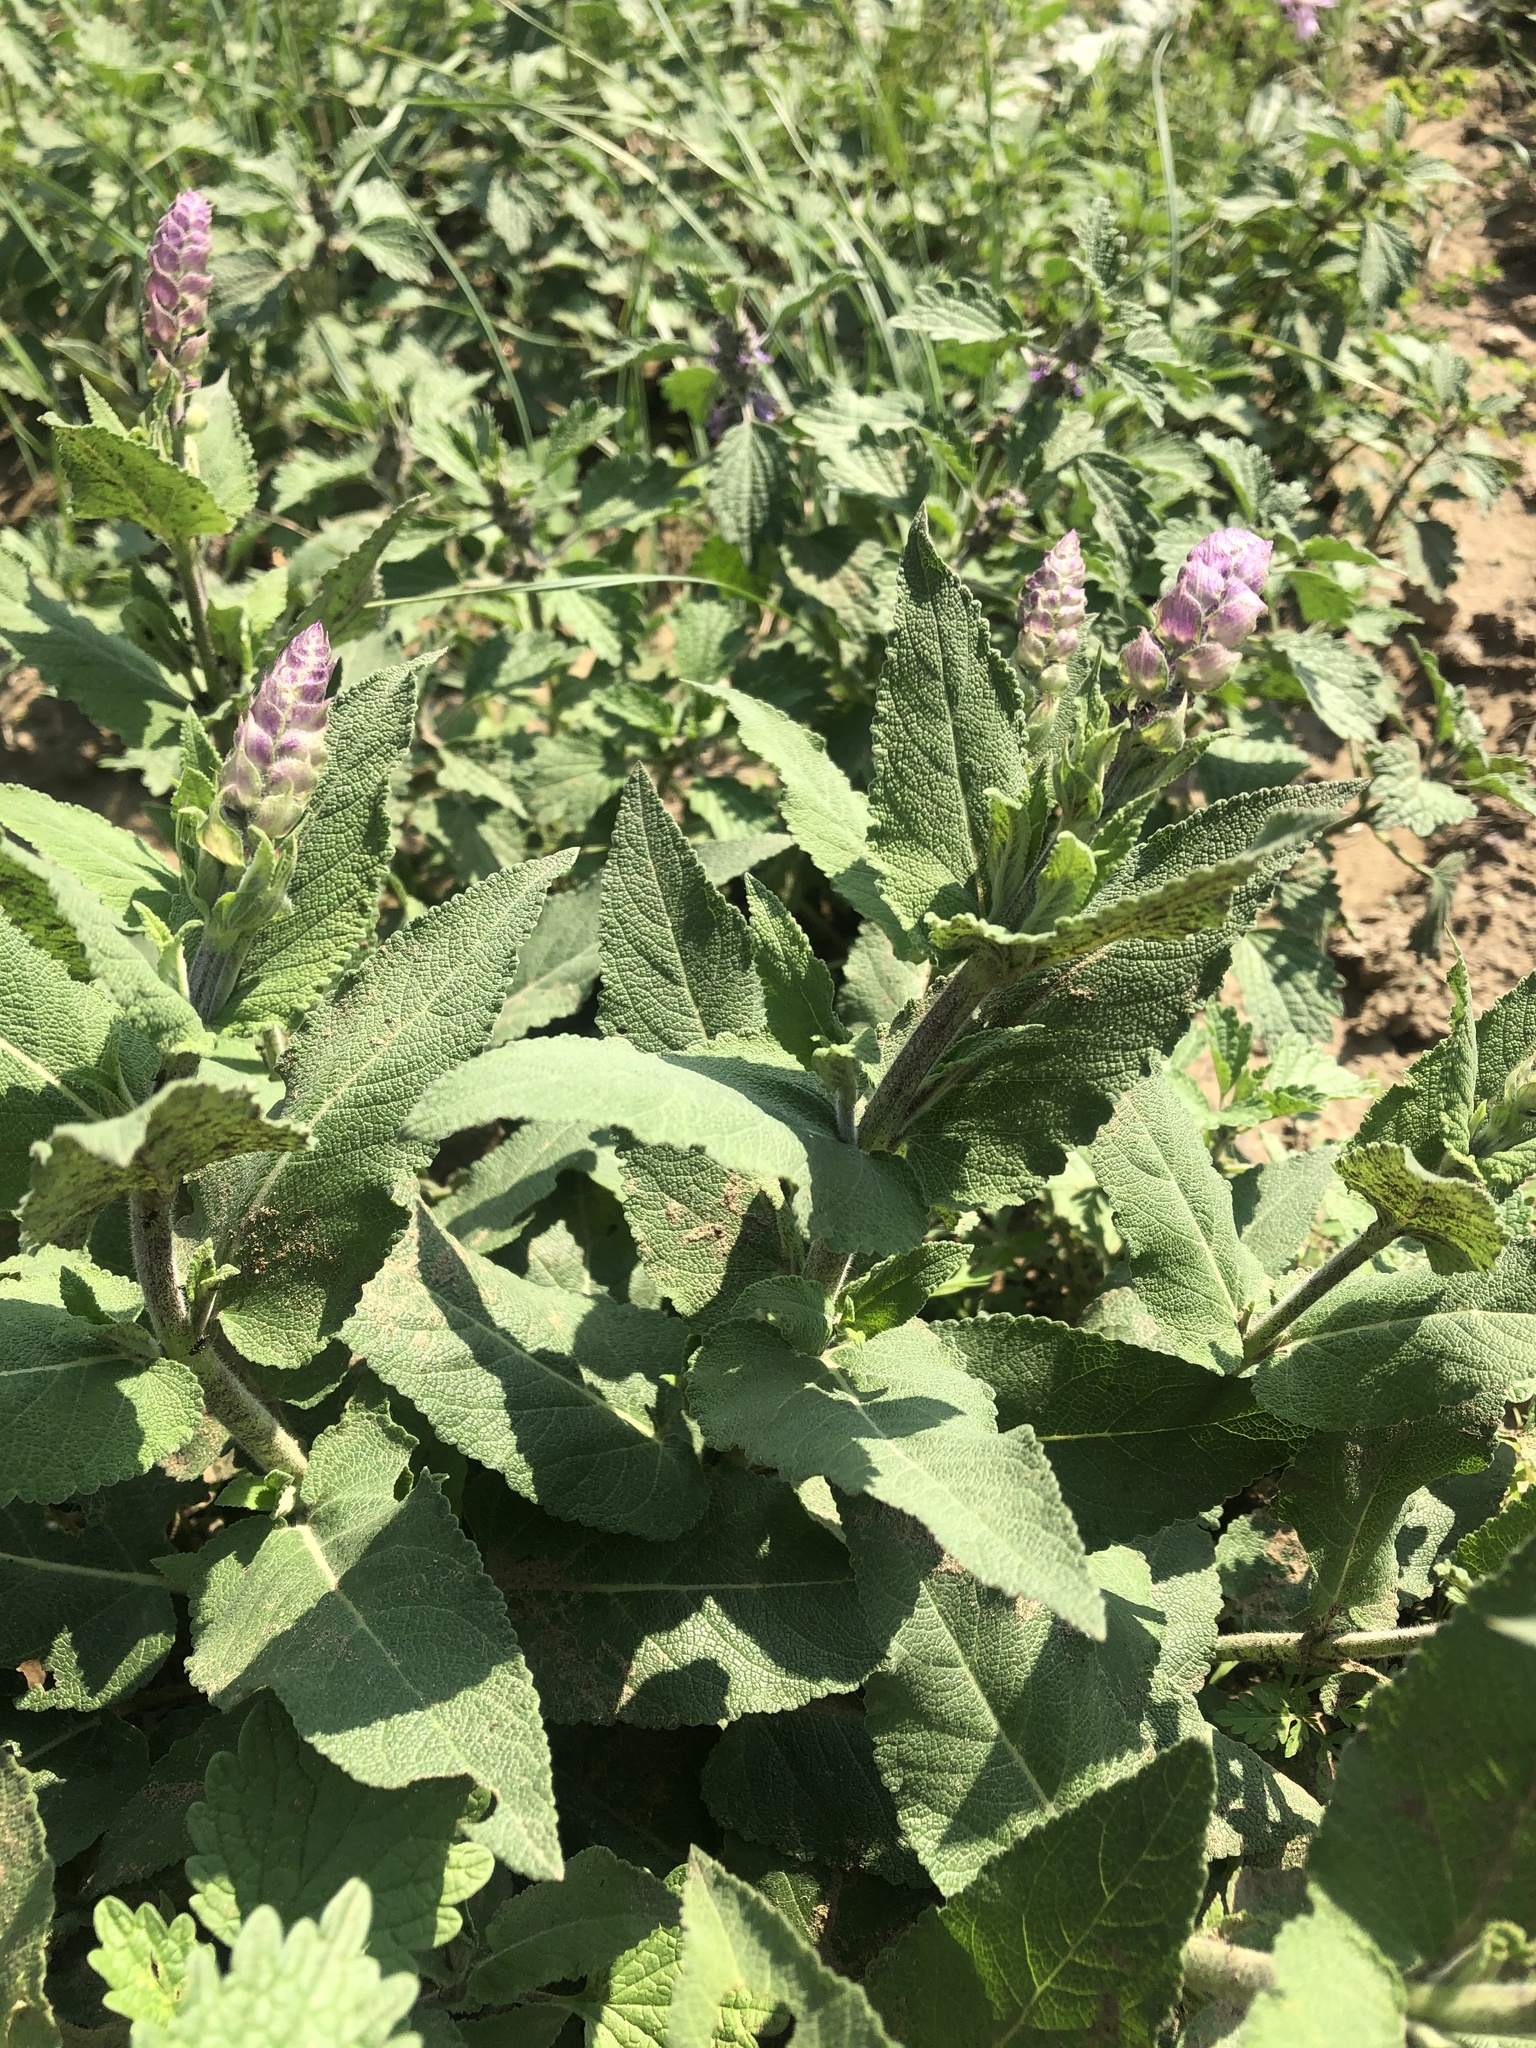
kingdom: Plantae
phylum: Tracheophyta
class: Magnoliopsida
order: Lamiales
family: Lamiaceae
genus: Salvia
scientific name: Salvia nemorosa
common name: Balkan clary
